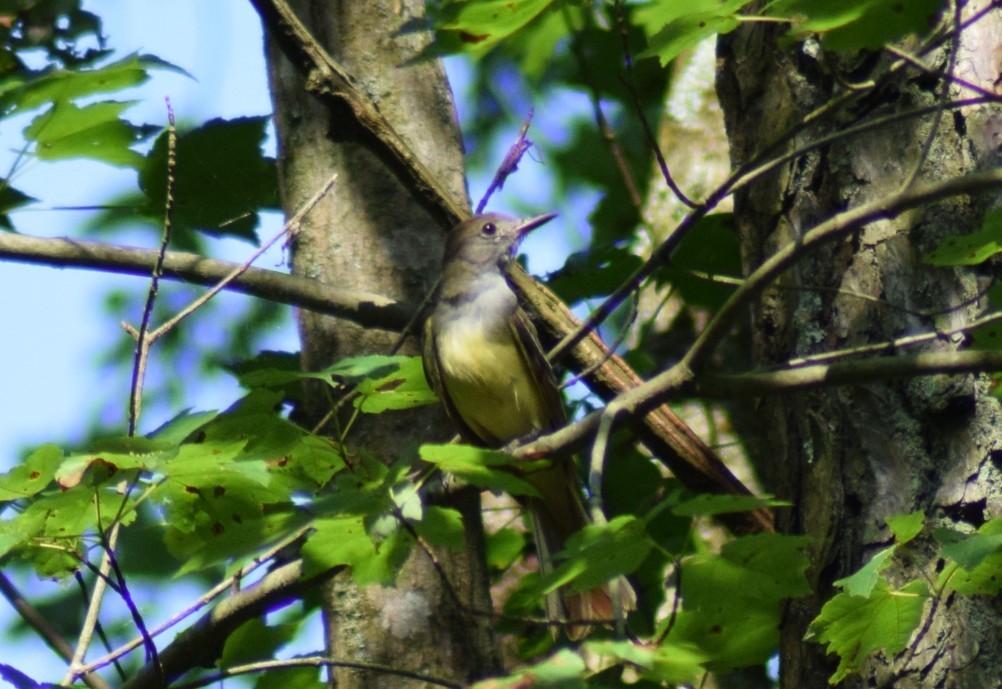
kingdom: Animalia
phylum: Chordata
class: Aves
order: Passeriformes
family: Tyrannidae
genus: Myiarchus
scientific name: Myiarchus crinitus
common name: Great crested flycatcher
